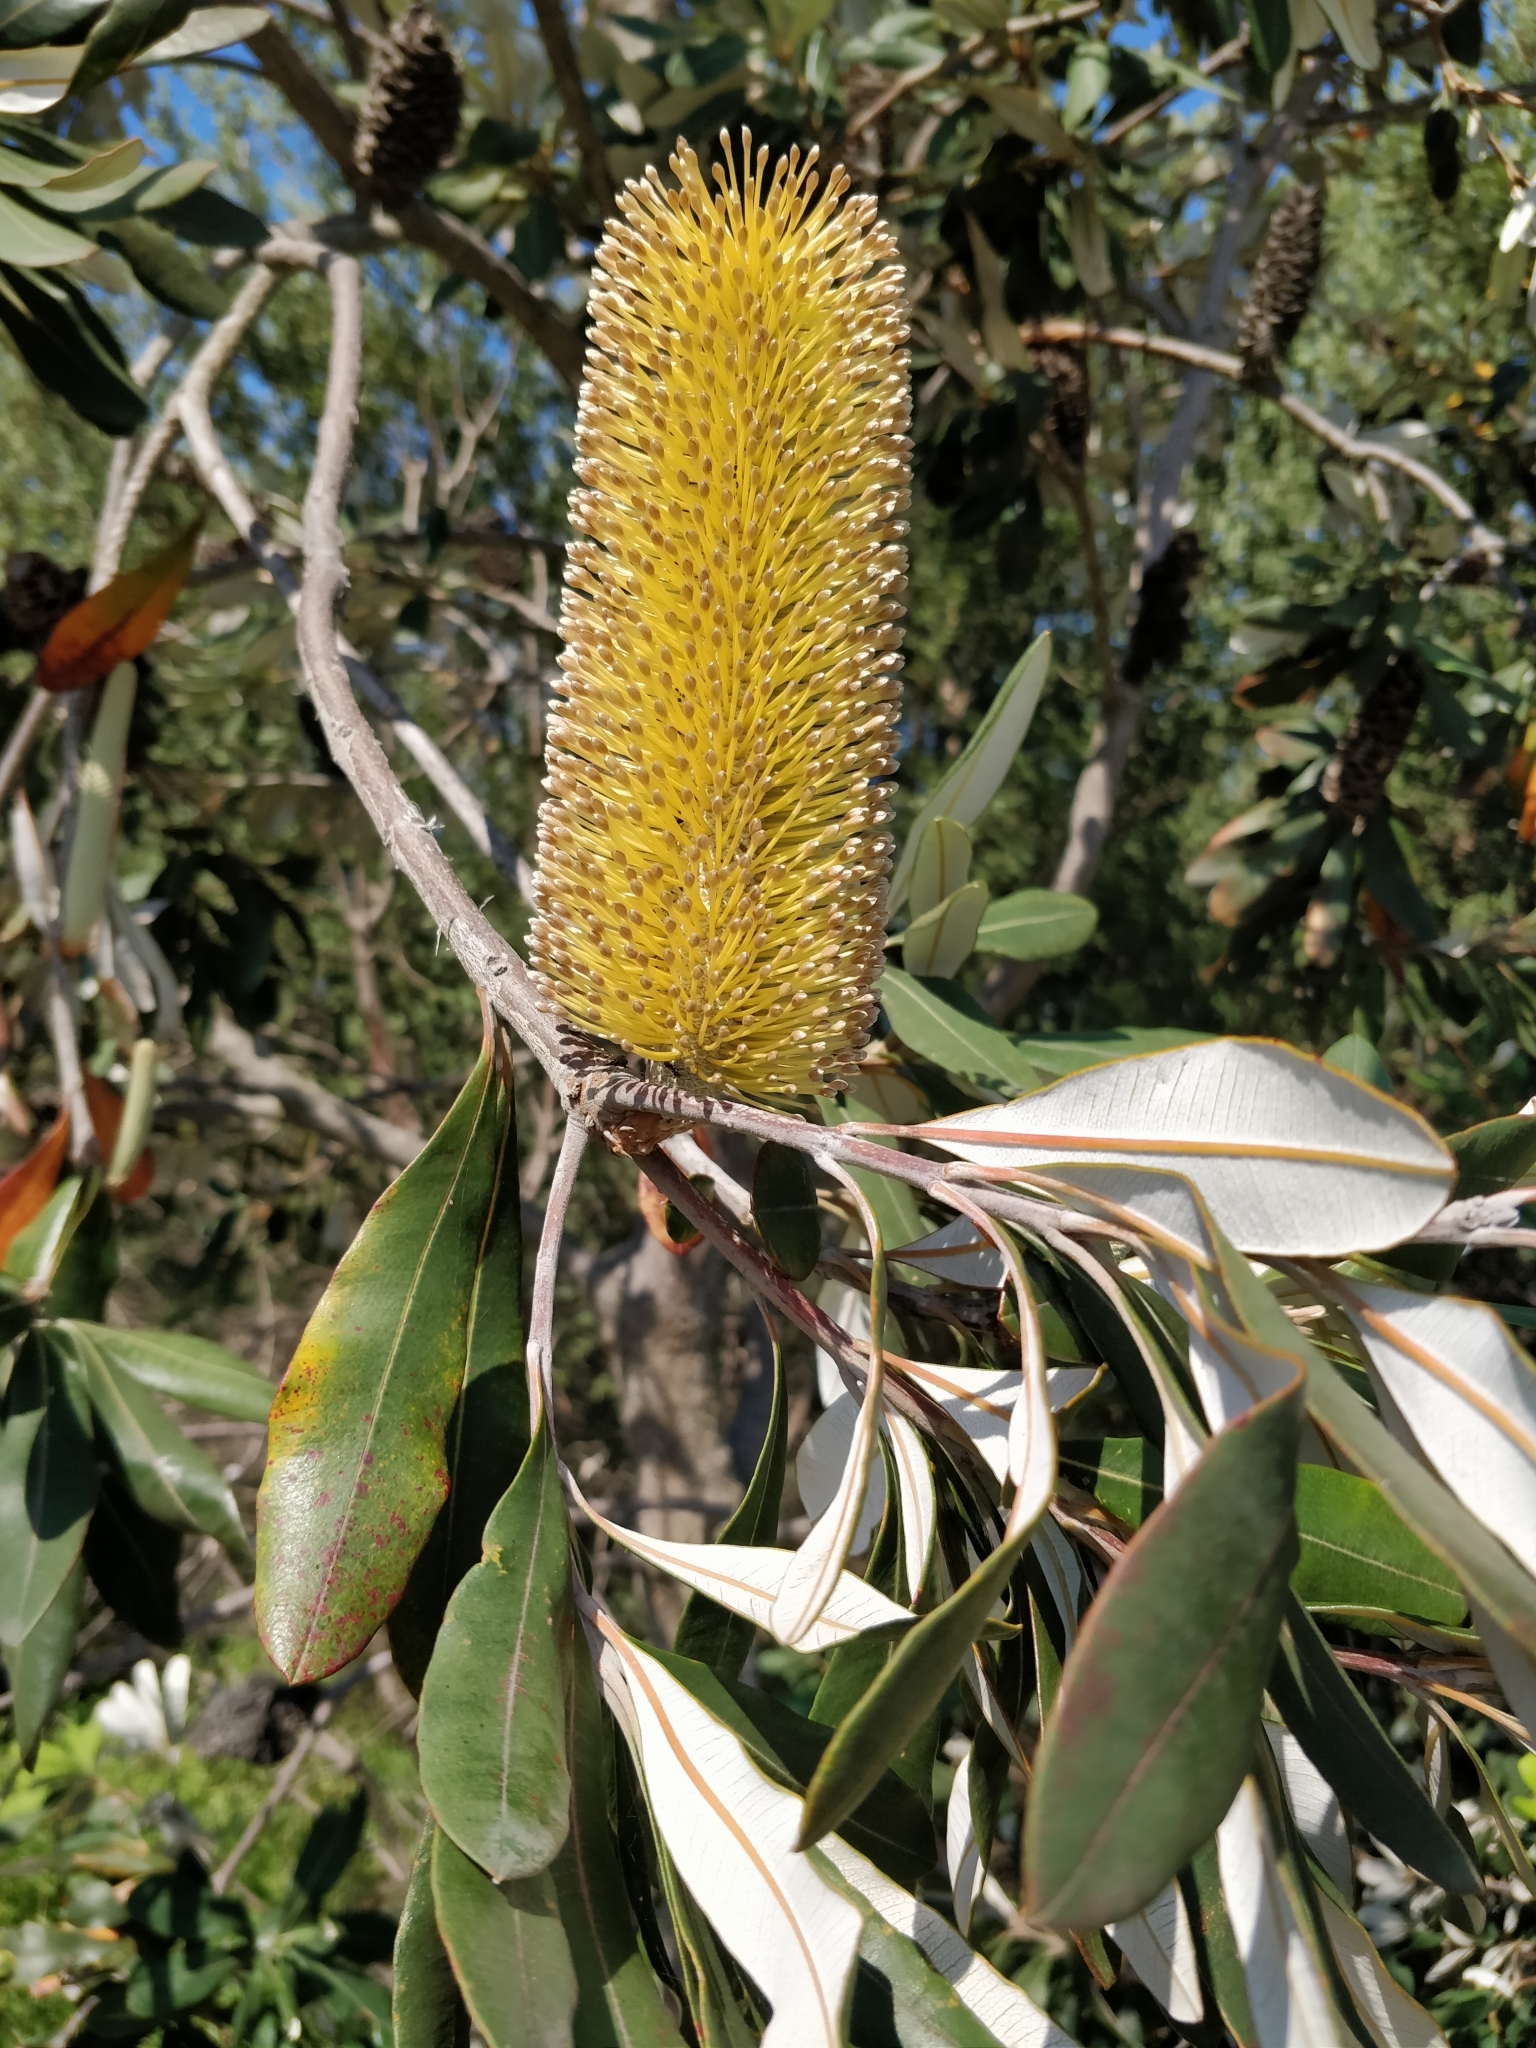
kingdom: Plantae
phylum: Tracheophyta
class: Magnoliopsida
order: Proteales
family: Proteaceae
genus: Banksia
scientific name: Banksia integrifolia
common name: White-honeysuckle
